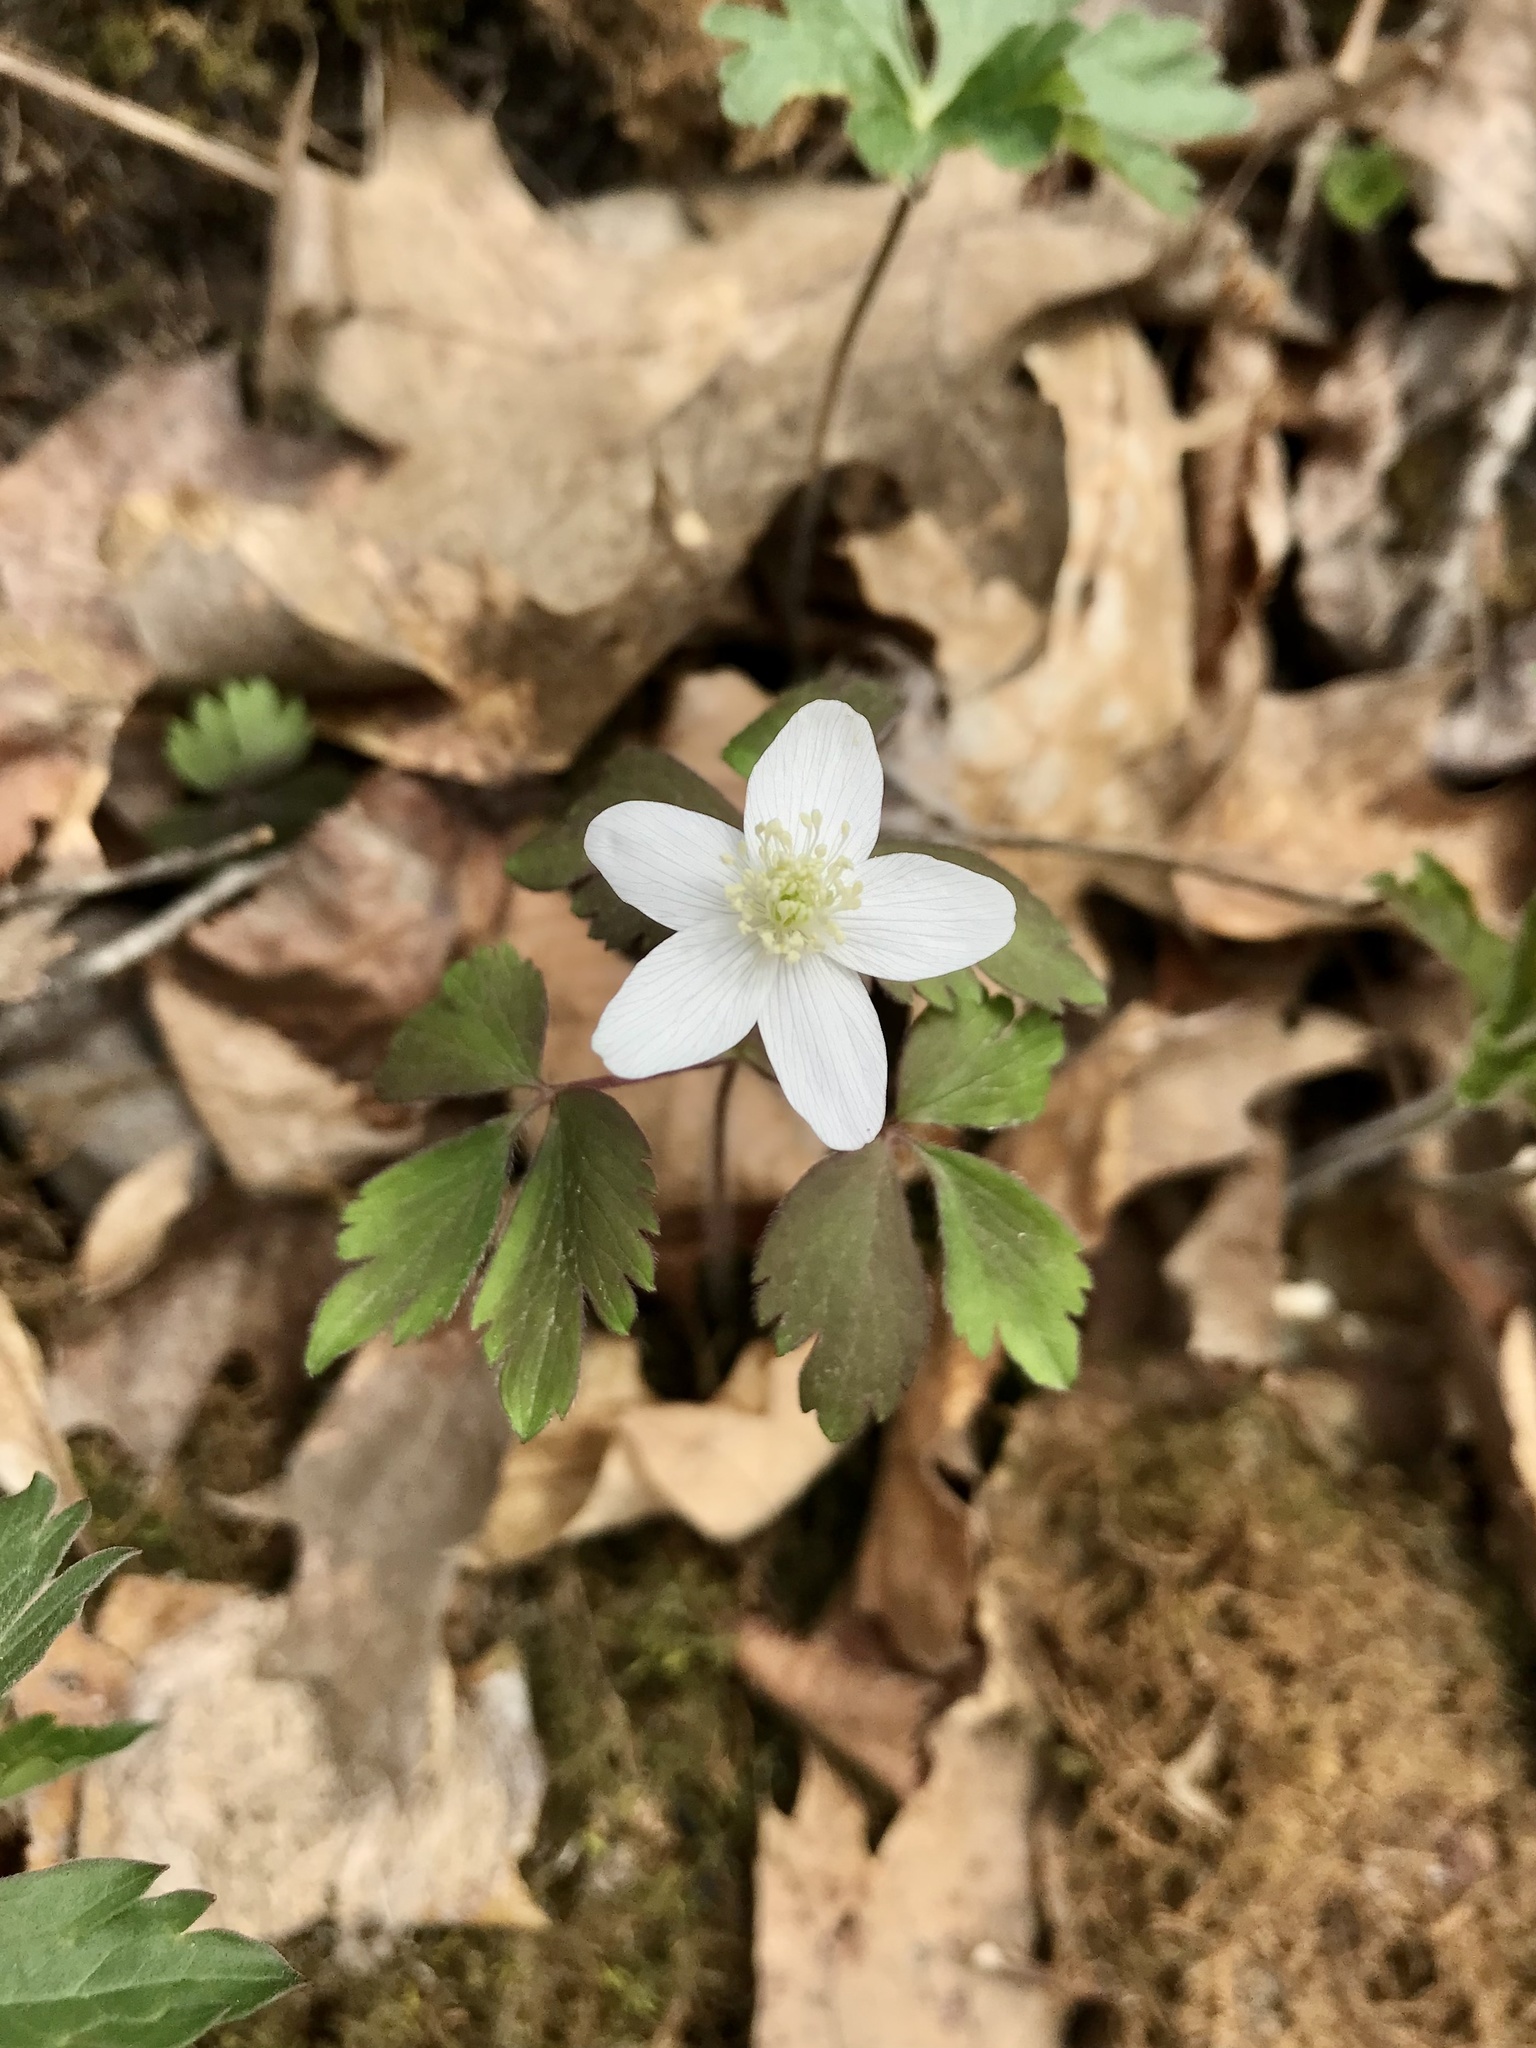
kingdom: Plantae
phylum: Tracheophyta
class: Magnoliopsida
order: Ranunculales
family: Ranunculaceae
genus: Anemone
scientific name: Anemone quinquefolia
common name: Wood anemone
